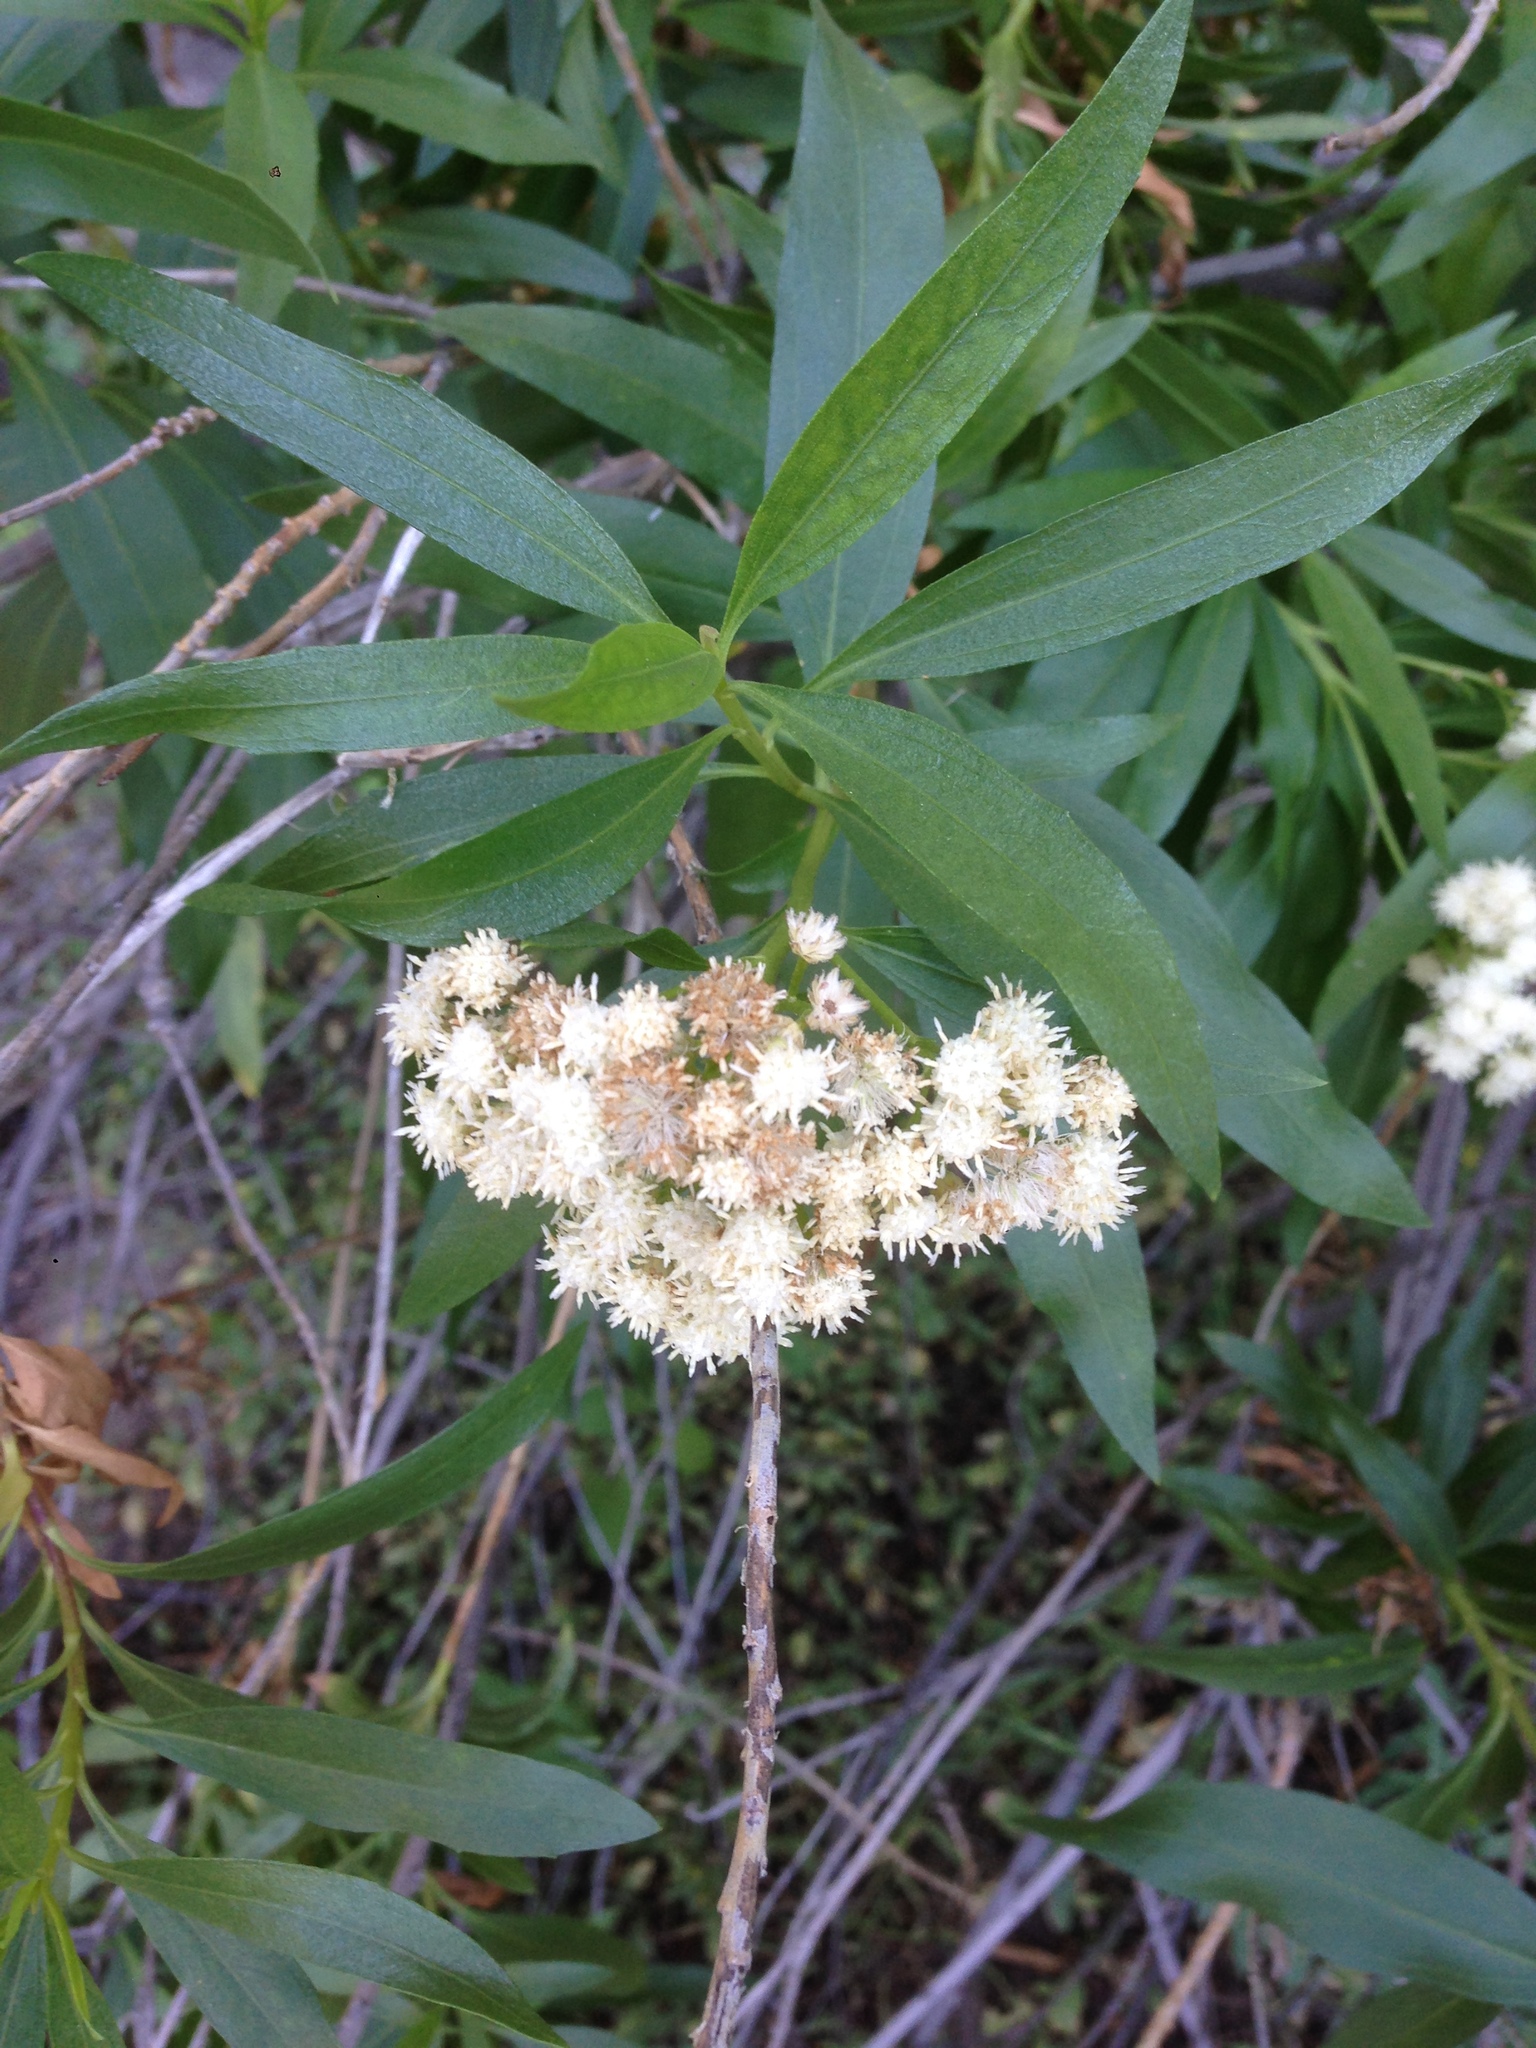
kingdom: Plantae
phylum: Tracheophyta
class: Magnoliopsida
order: Asterales
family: Asteraceae
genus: Baccharis
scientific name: Baccharis salicifolia
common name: Sticky baccharis
